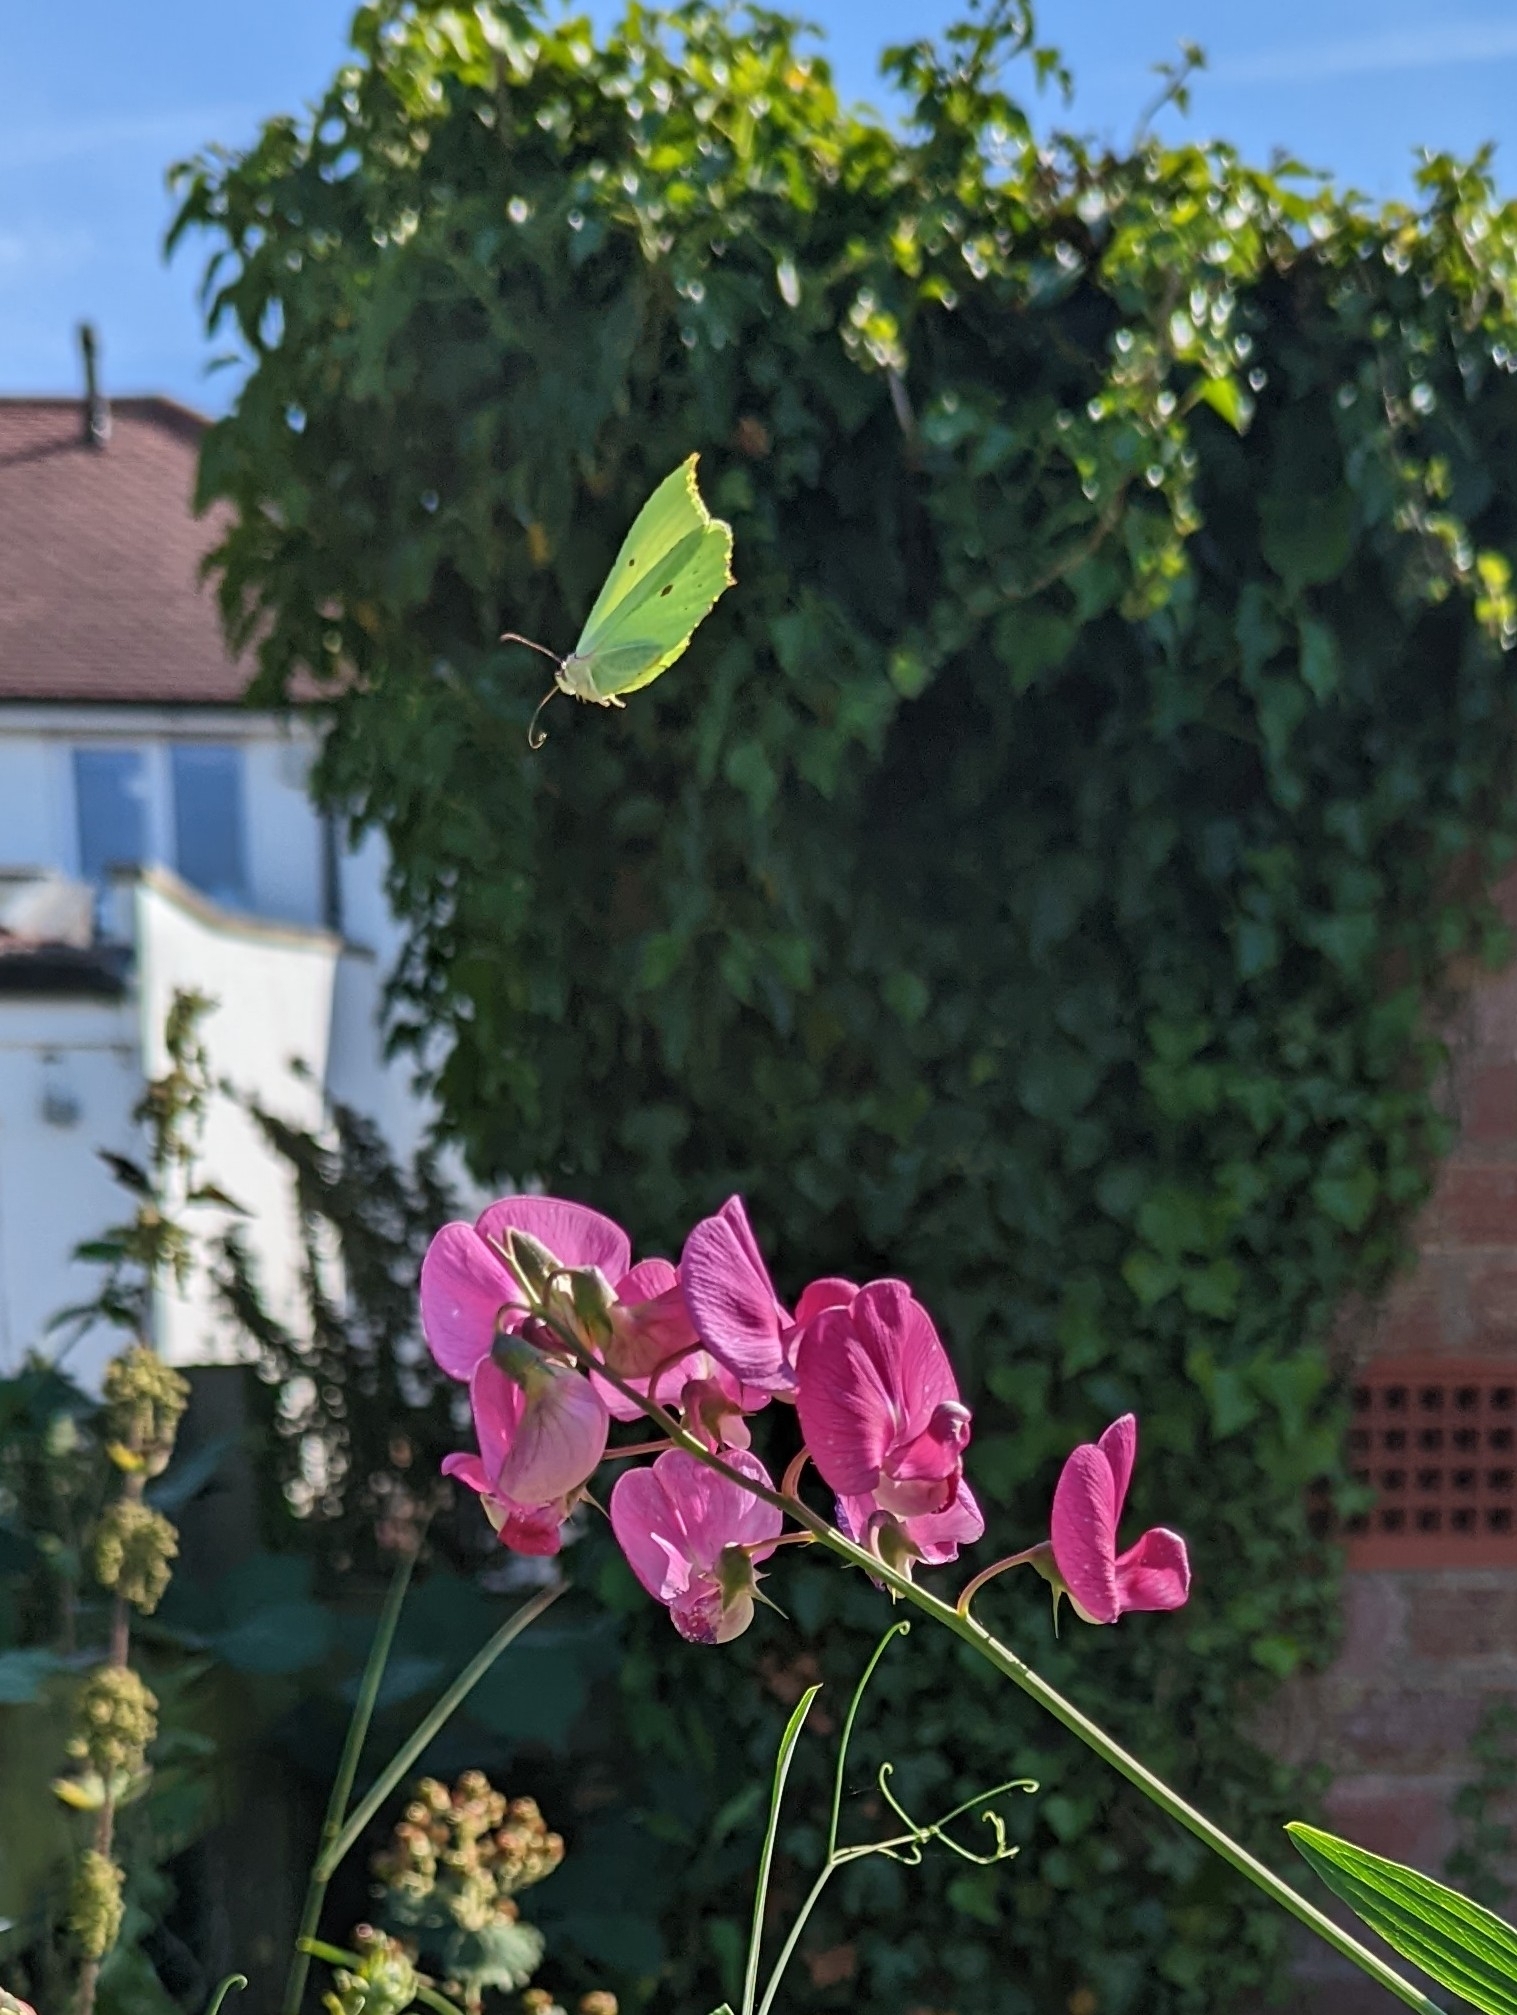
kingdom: Animalia
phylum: Arthropoda
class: Insecta
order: Lepidoptera
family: Pieridae
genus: Gonepteryx
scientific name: Gonepteryx rhamni
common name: Brimstone
